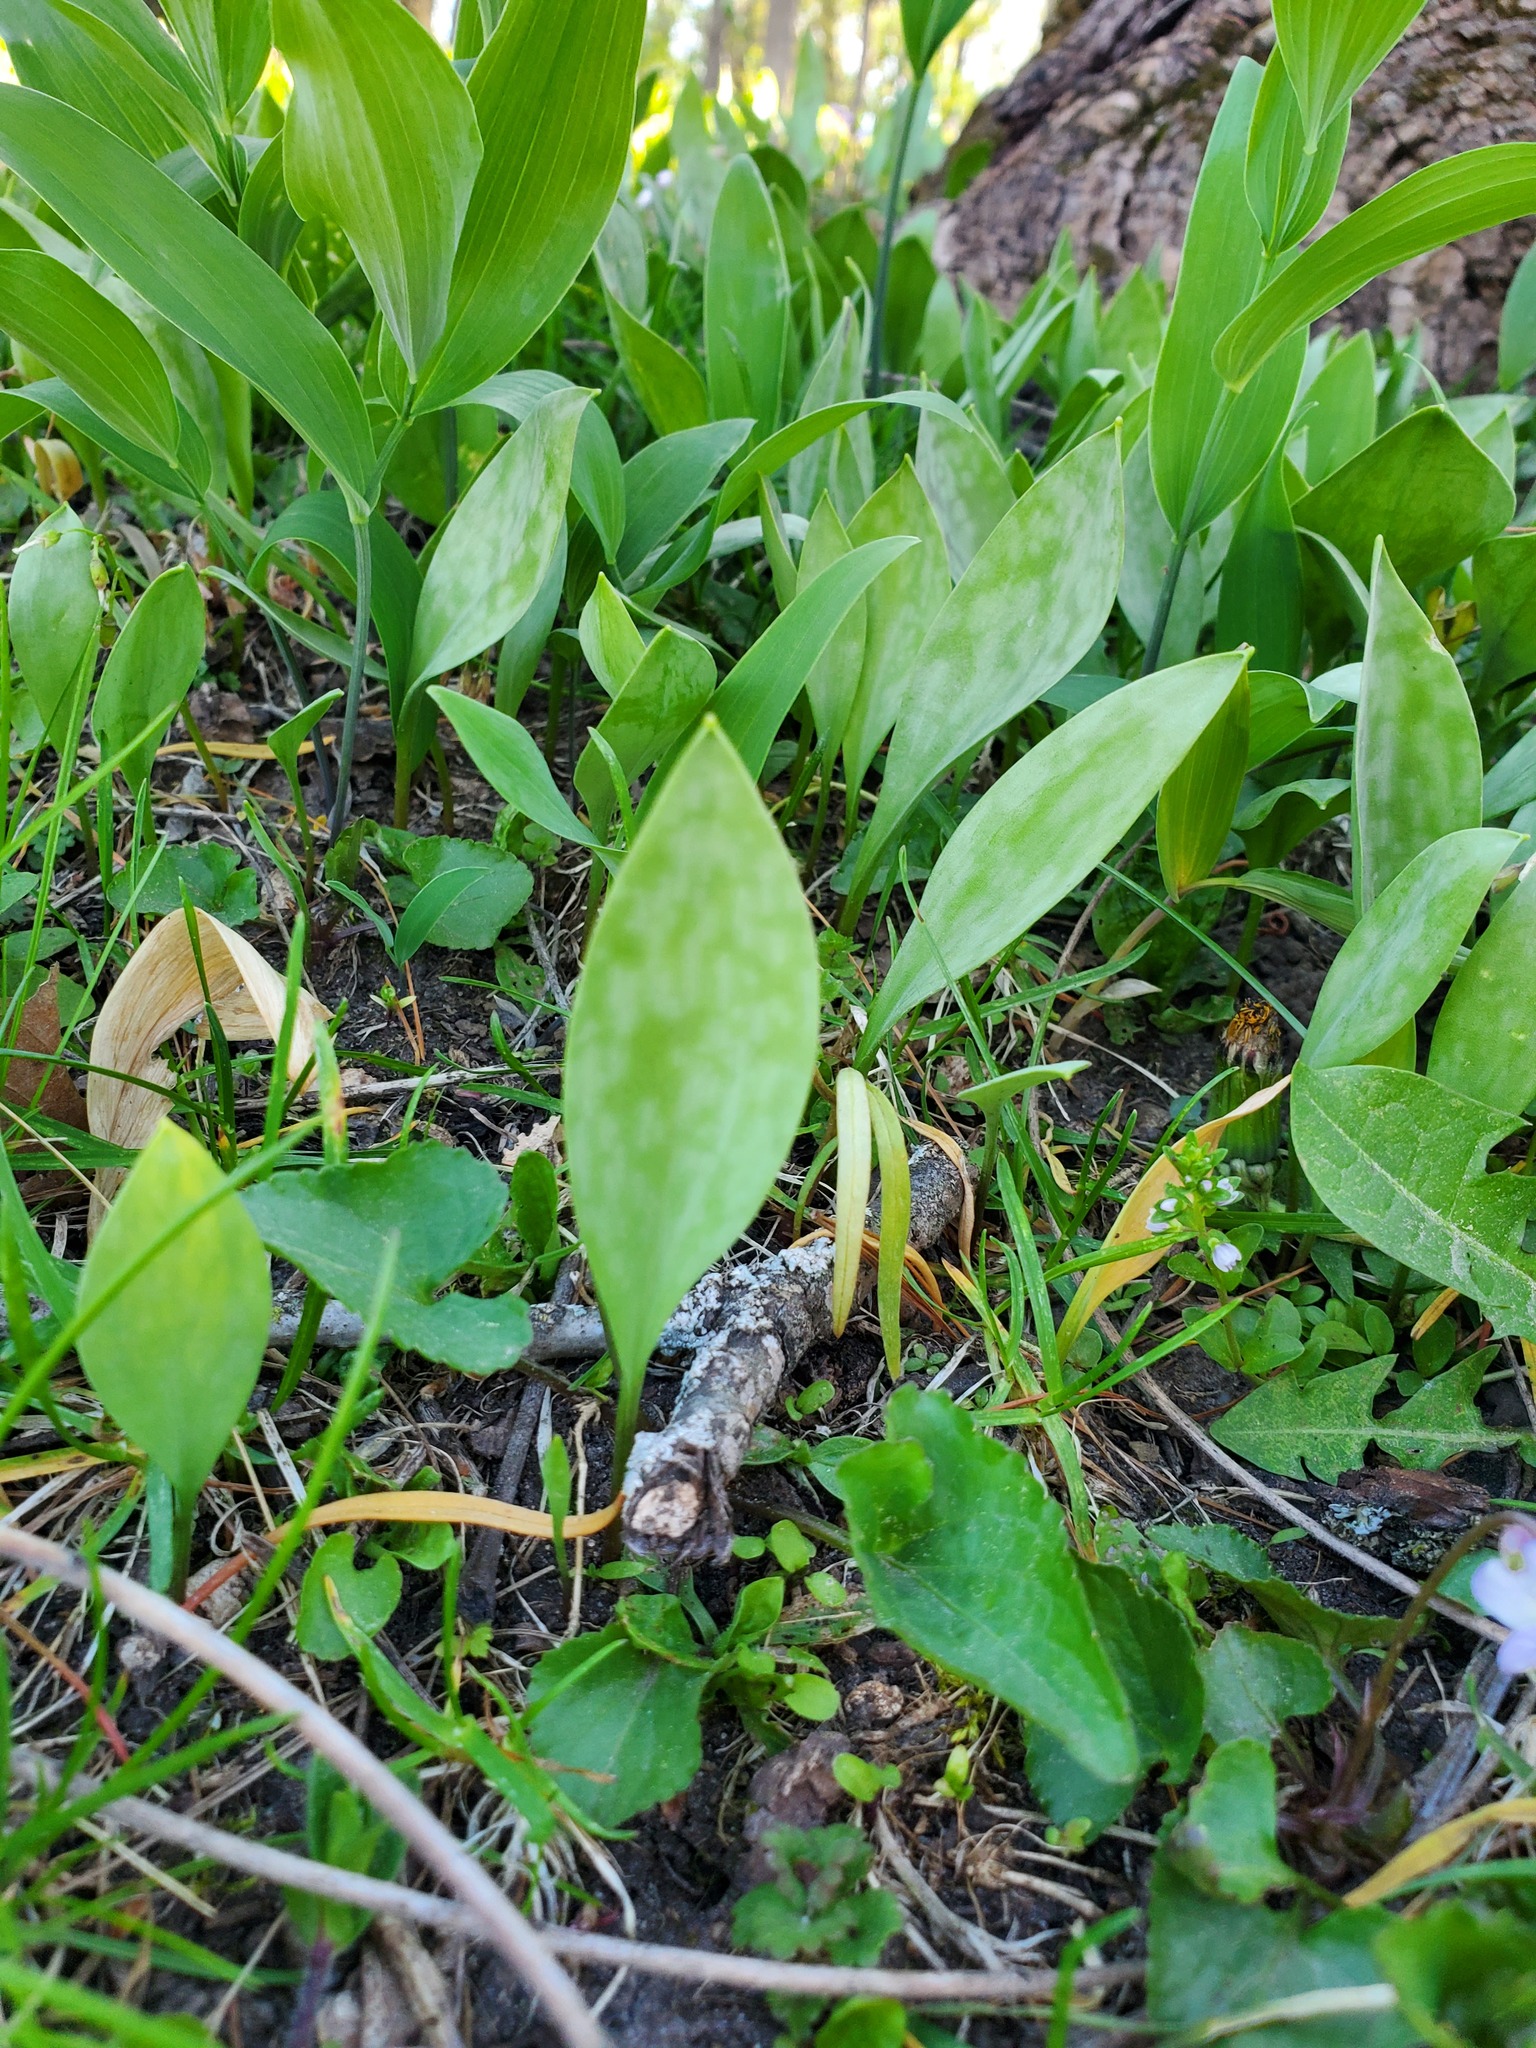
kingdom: Plantae
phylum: Tracheophyta
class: Liliopsida
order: Liliales
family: Liliaceae
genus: Erythronium
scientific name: Erythronium albidum
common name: White trout-lily
